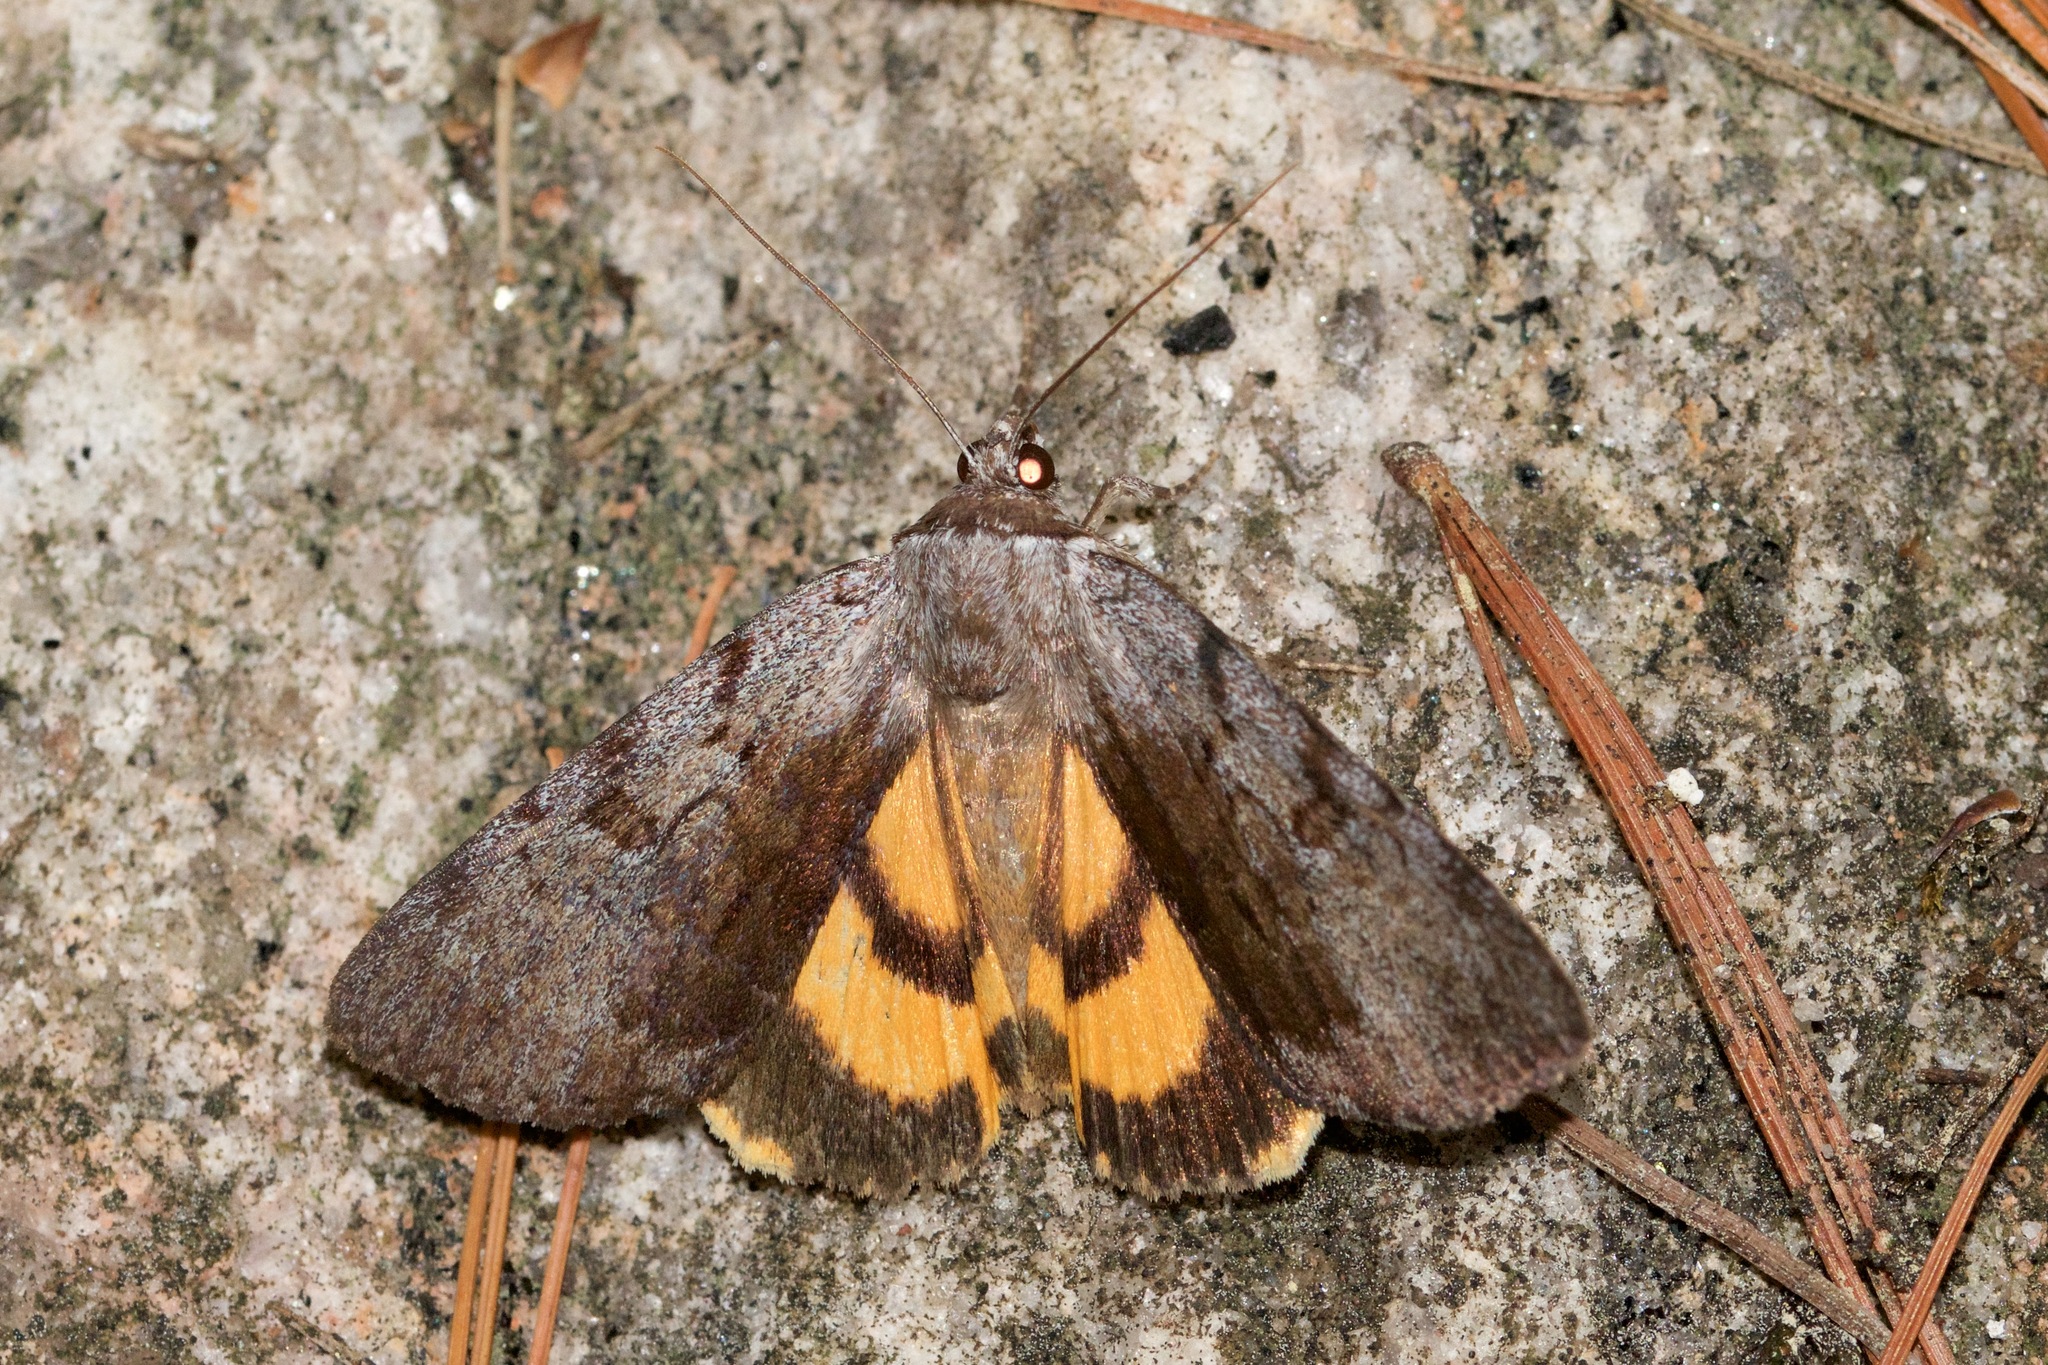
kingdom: Animalia
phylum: Arthropoda
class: Insecta
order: Lepidoptera
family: Erebidae
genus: Catocala
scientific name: Catocala sordida
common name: Sordid underwing
